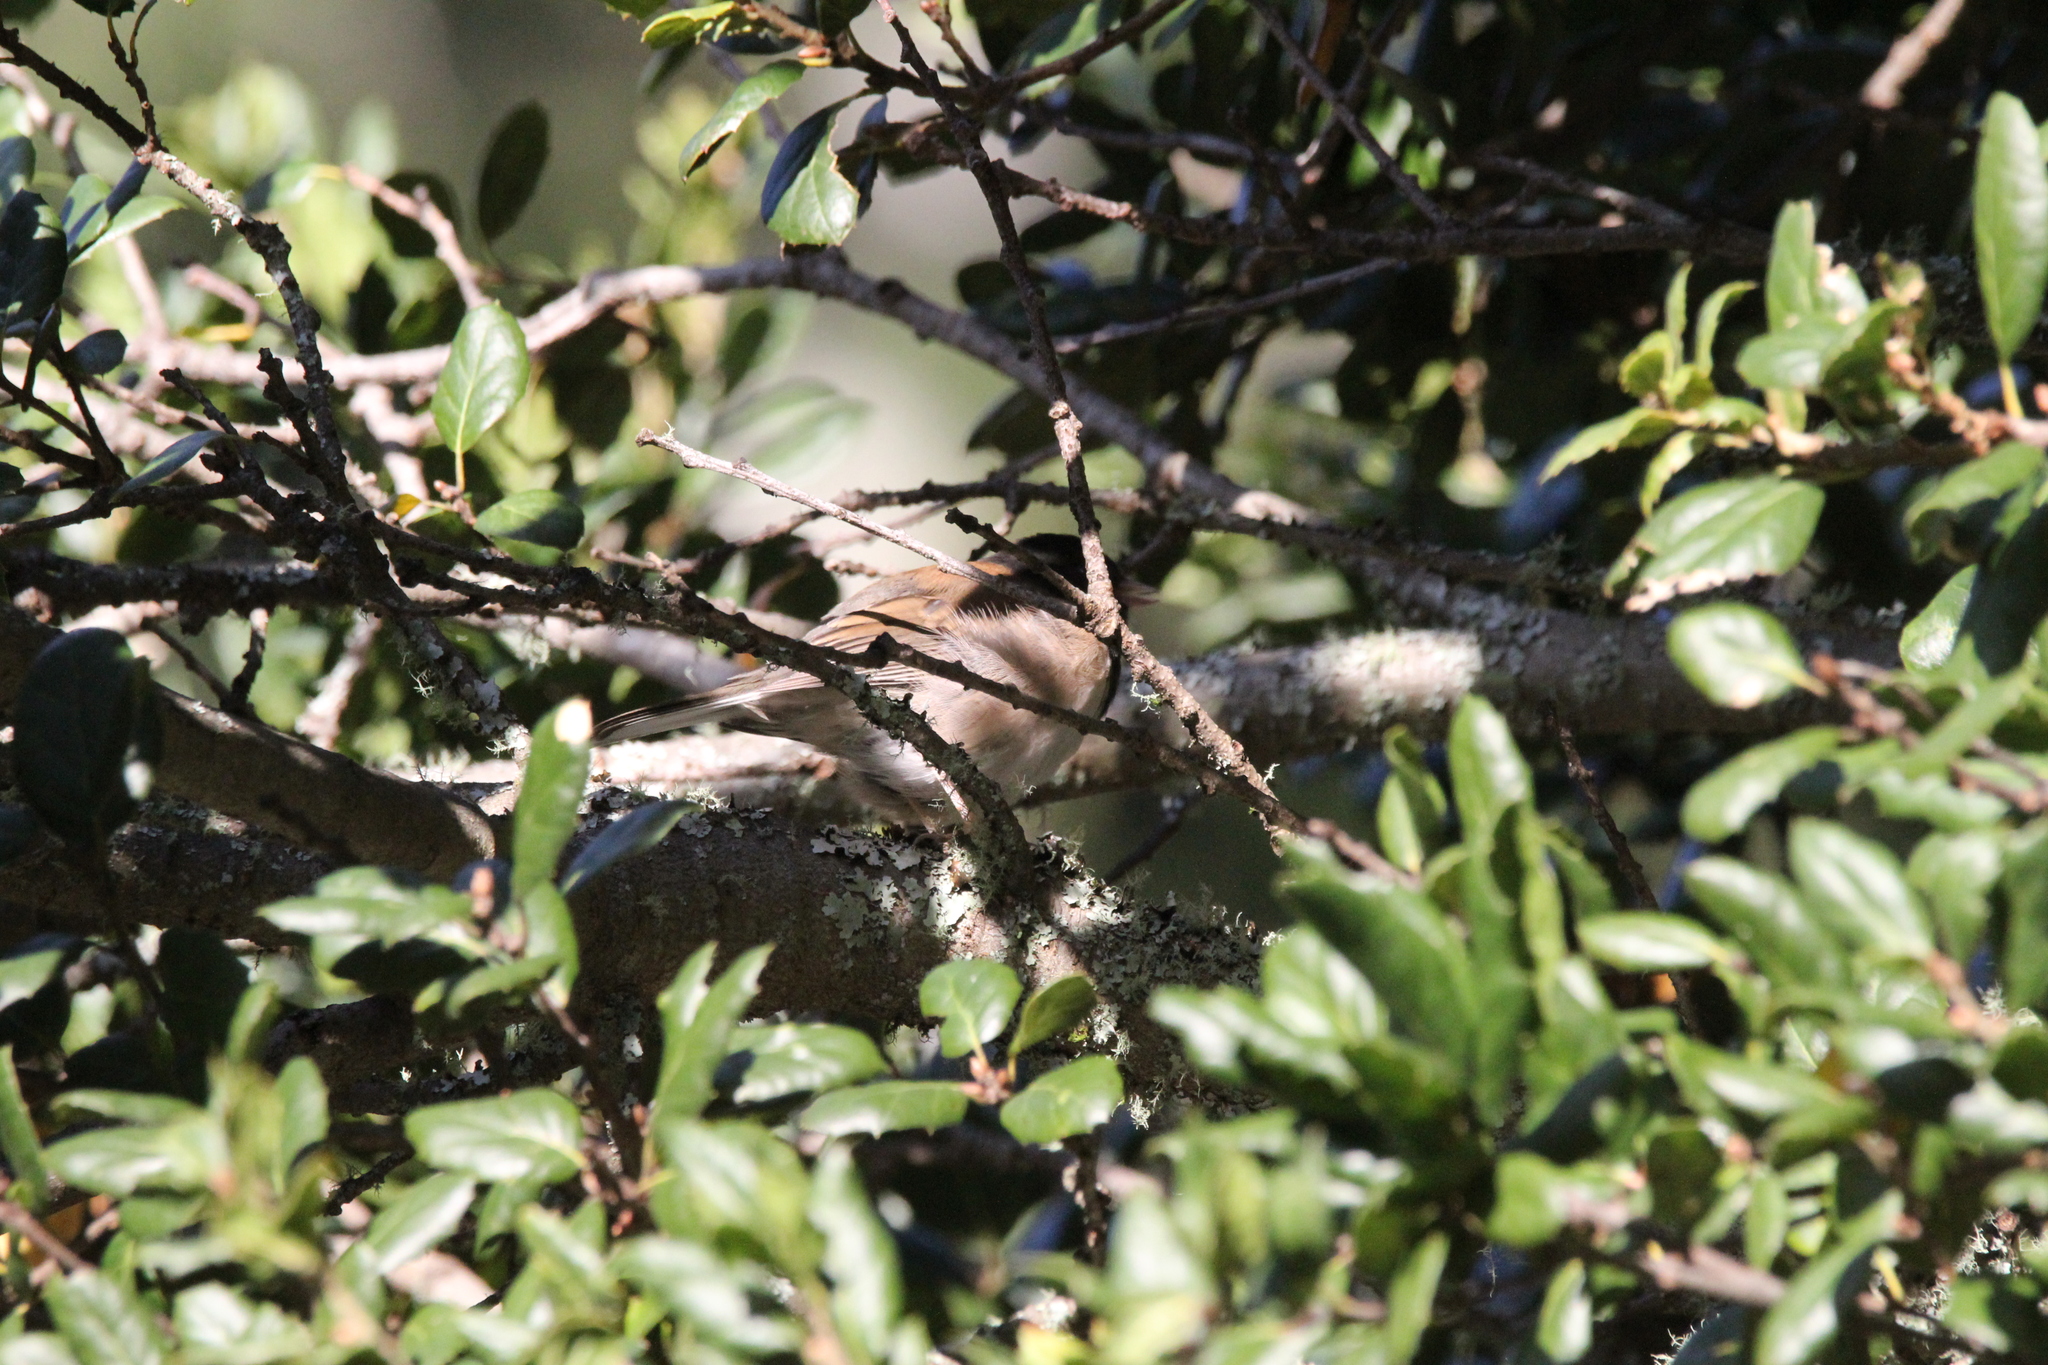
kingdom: Animalia
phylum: Chordata
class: Aves
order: Passeriformes
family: Passerellidae
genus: Junco
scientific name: Junco hyemalis
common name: Dark-eyed junco
